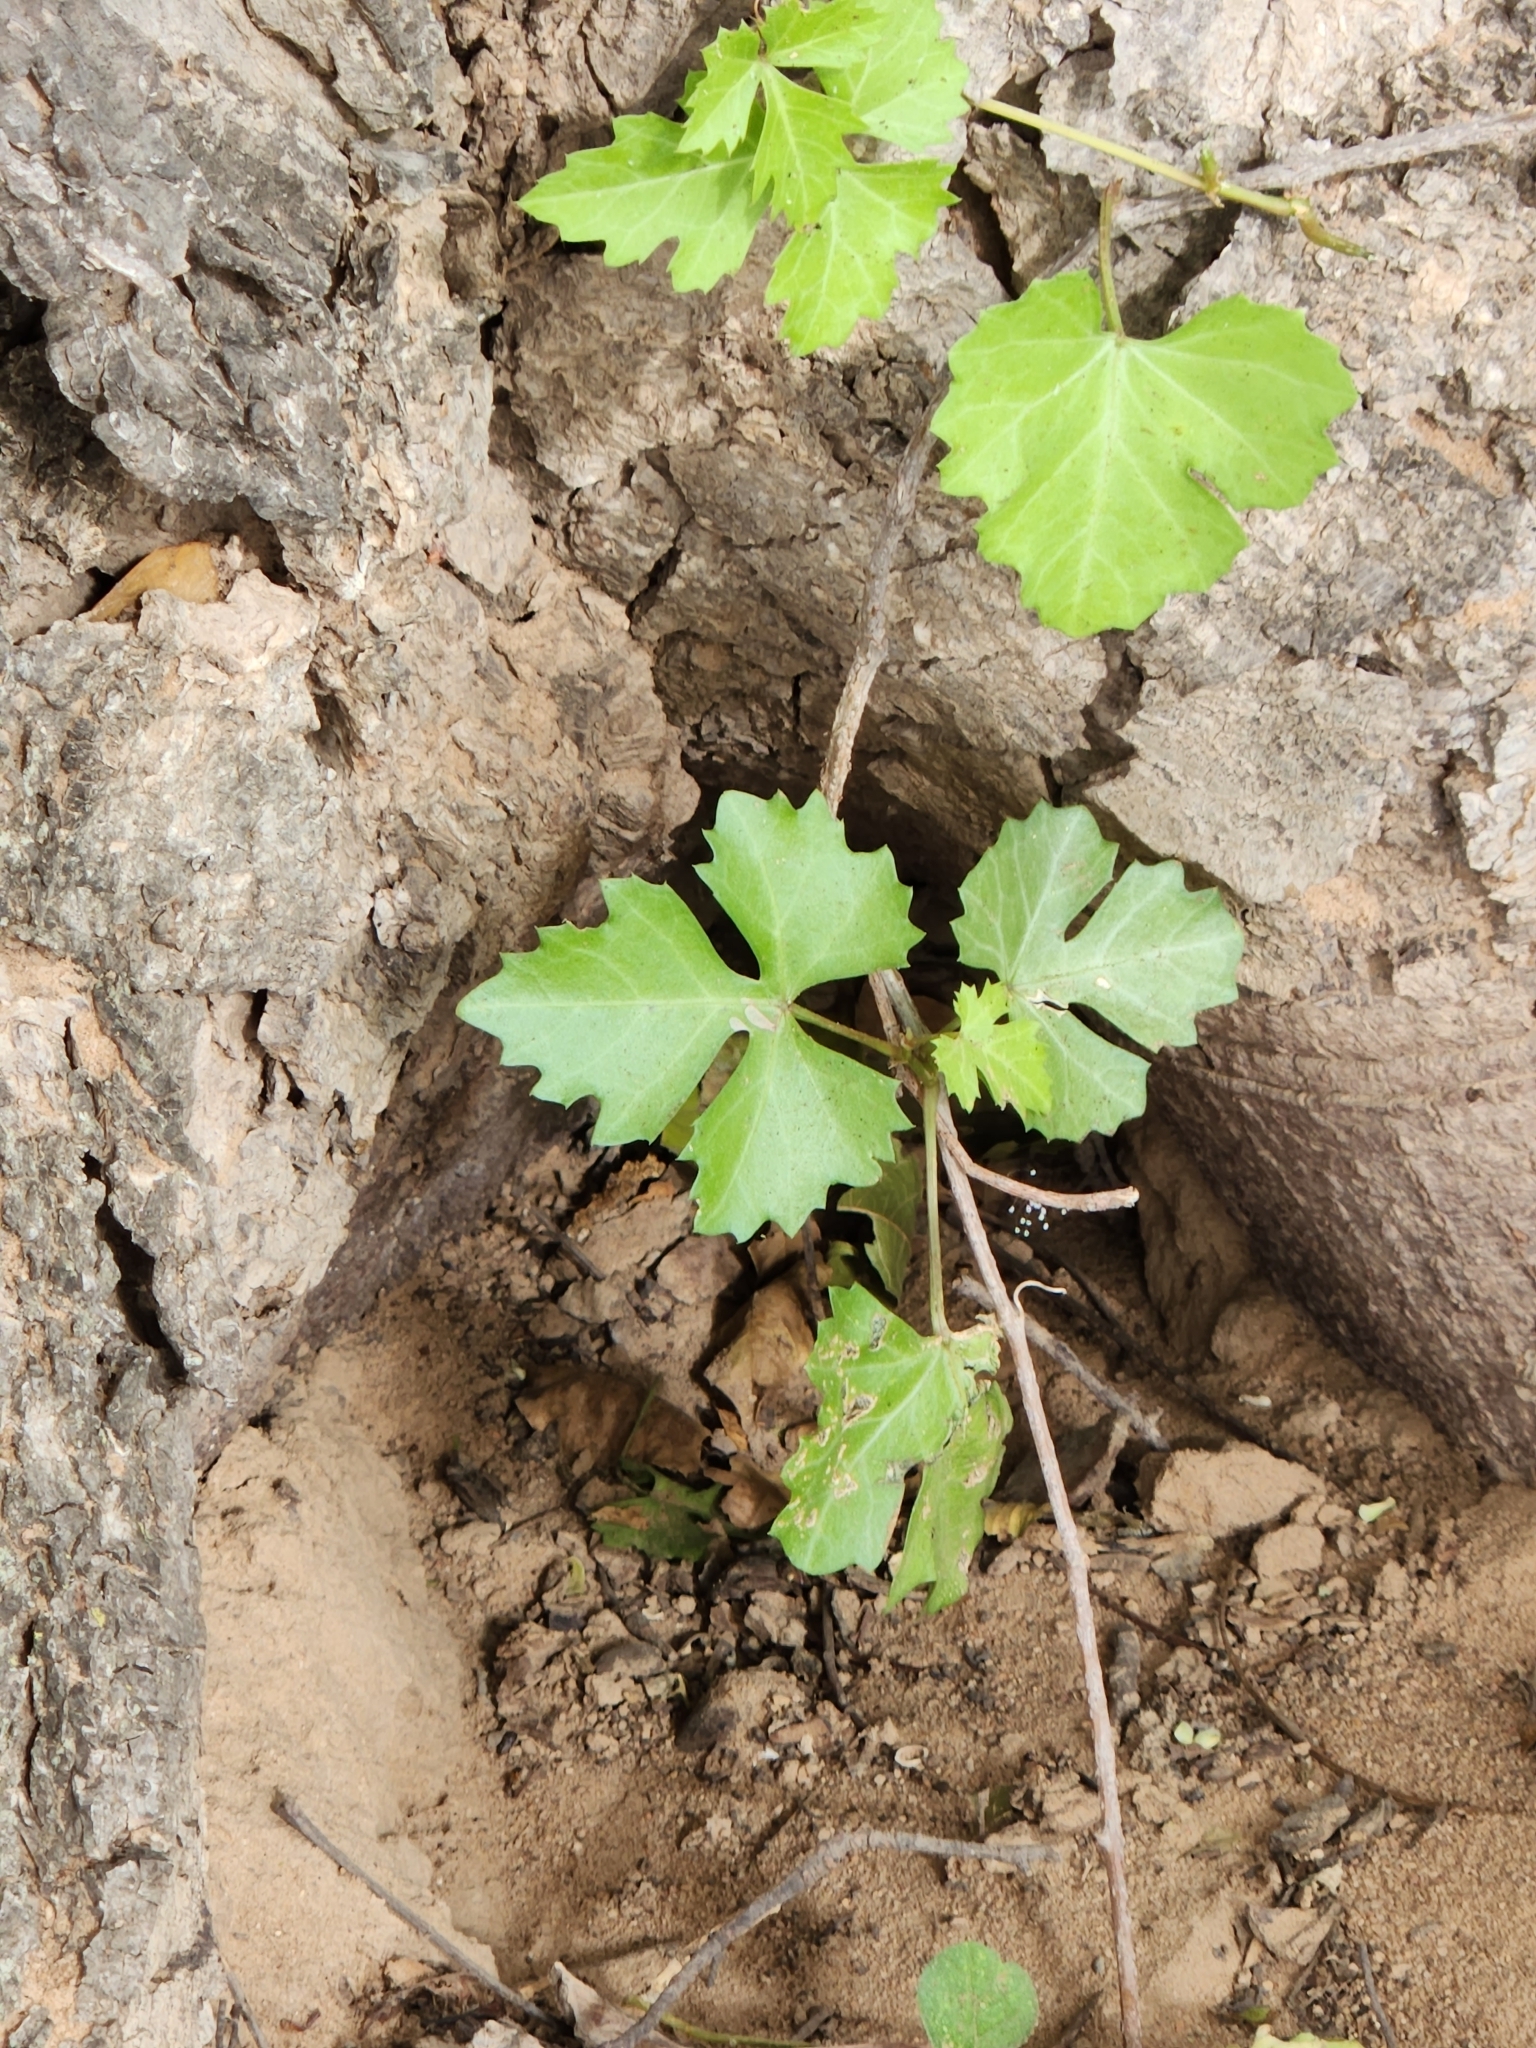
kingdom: Plantae
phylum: Tracheophyta
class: Magnoliopsida
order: Vitales
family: Vitaceae
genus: Cissus
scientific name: Cissus trifoliata
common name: Vine-sorrel
